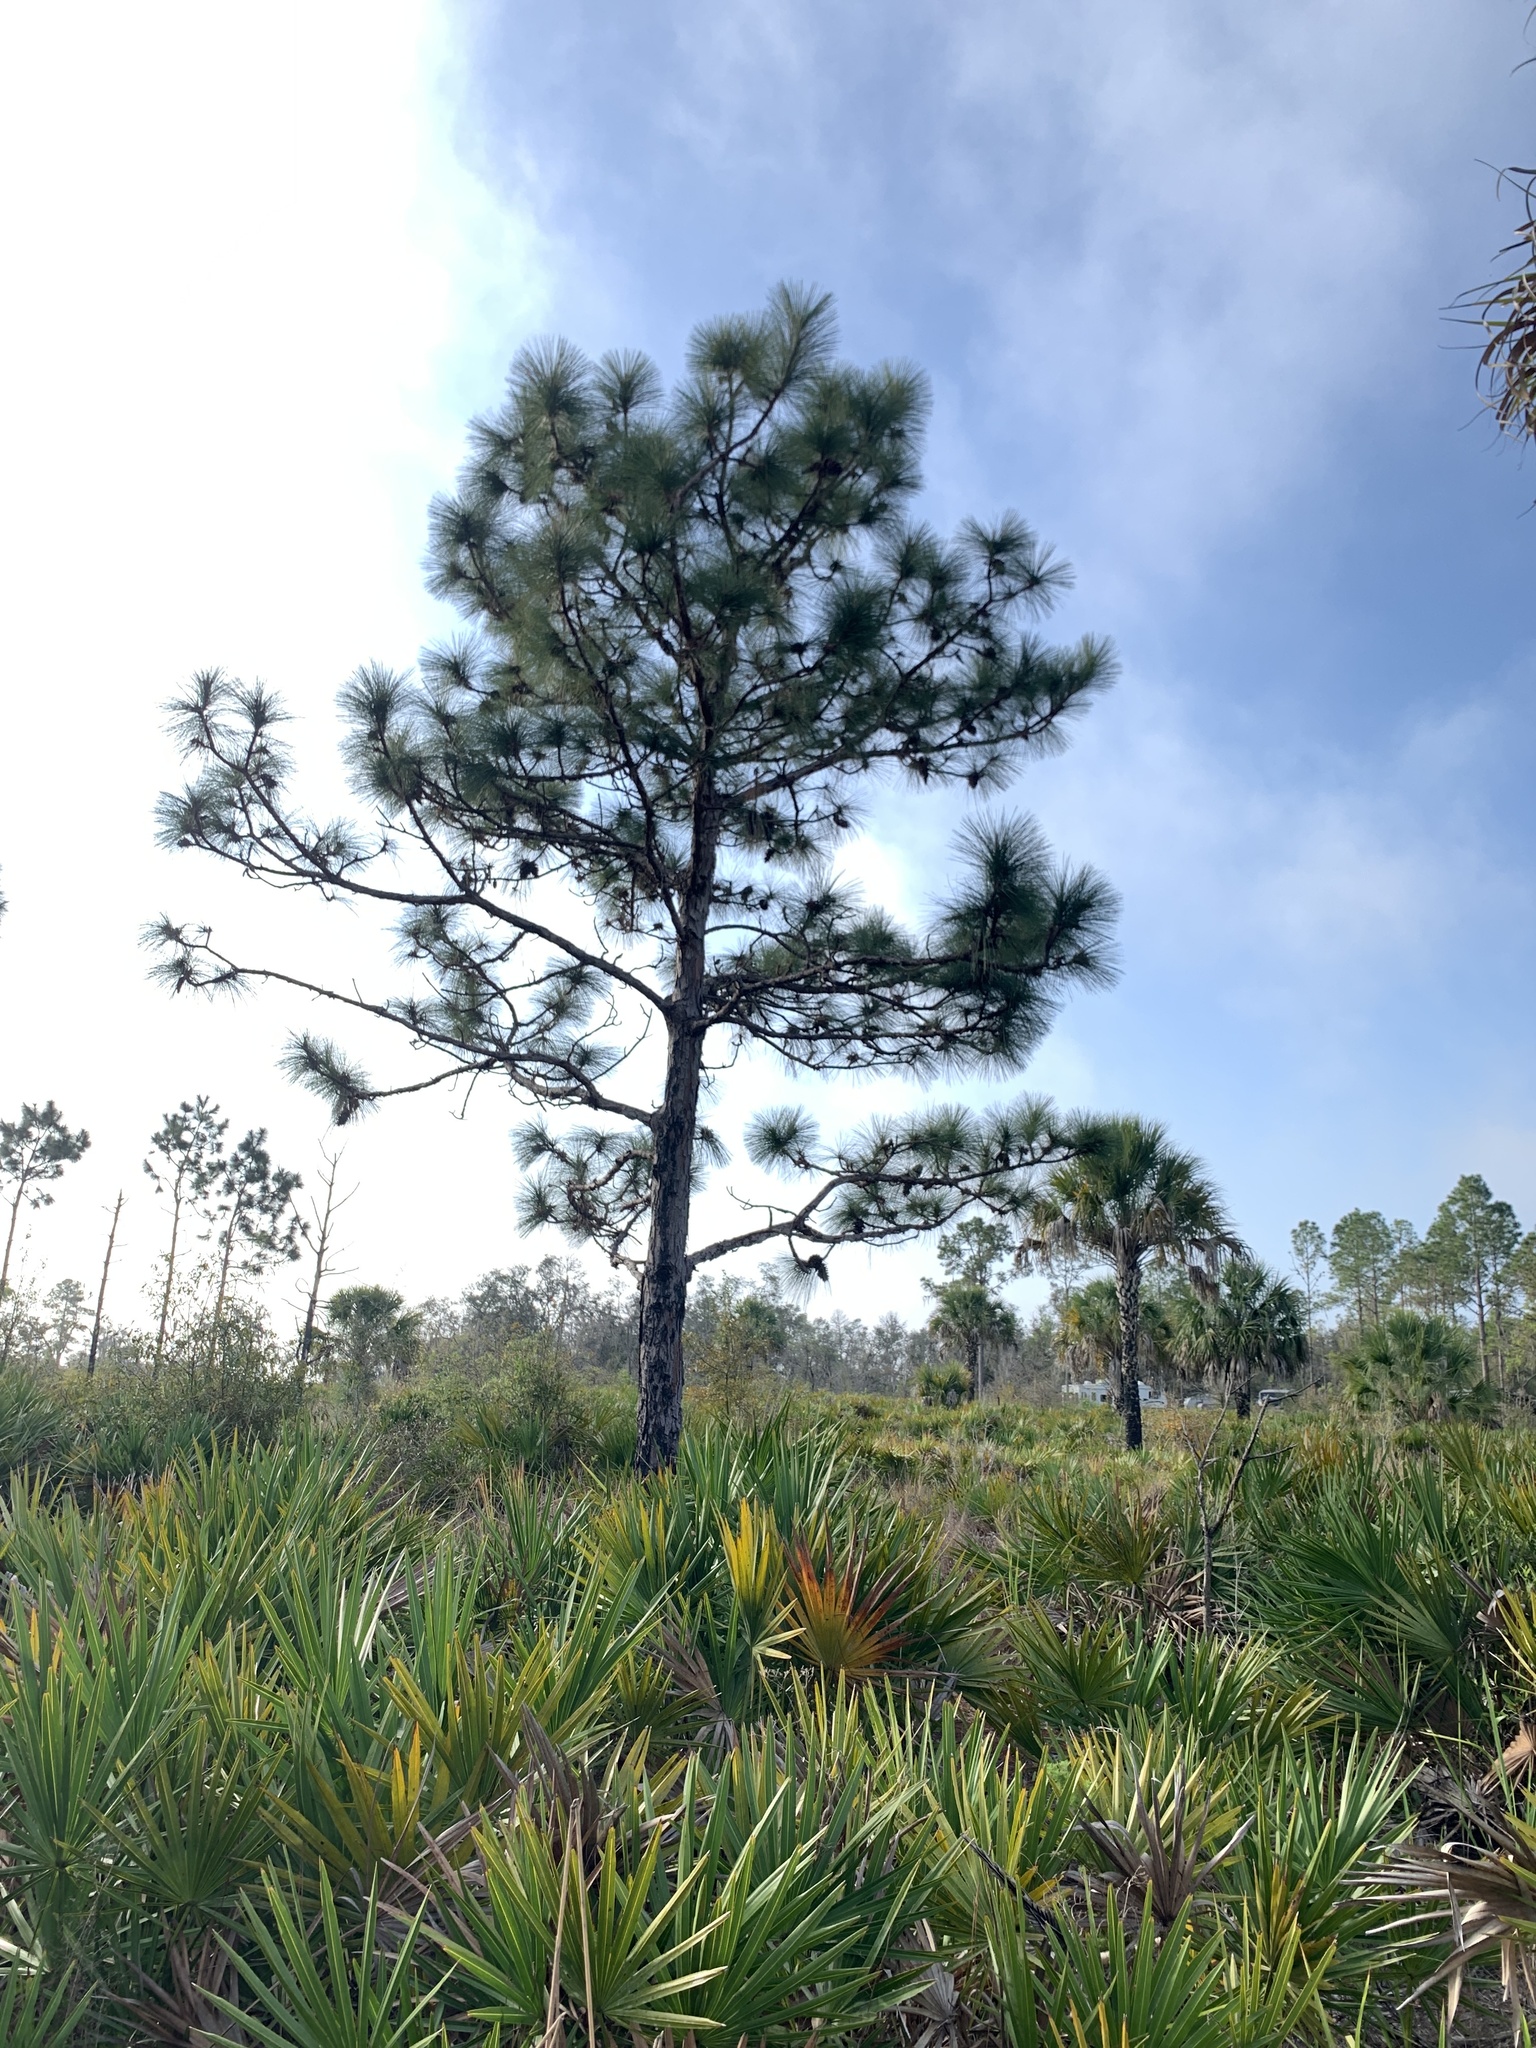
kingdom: Plantae
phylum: Tracheophyta
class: Pinopsida
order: Pinales
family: Pinaceae
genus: Pinus
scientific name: Pinus palustris
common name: Longleaf pine
